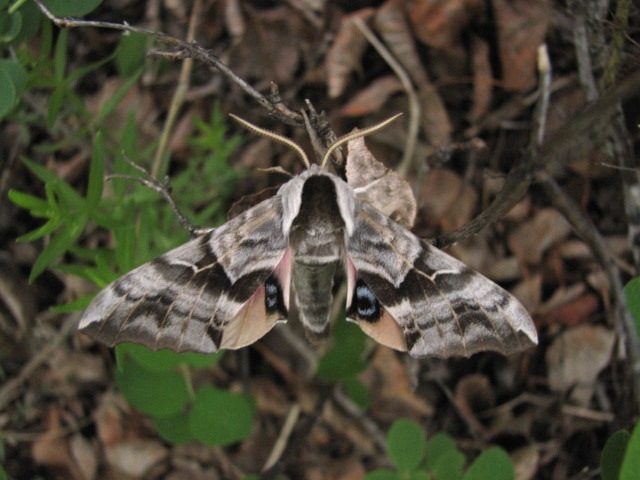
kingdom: Animalia
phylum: Arthropoda
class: Insecta
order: Lepidoptera
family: Sphingidae
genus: Smerinthus
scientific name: Smerinthus cerisyi
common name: Cerisy's sphinx moth
